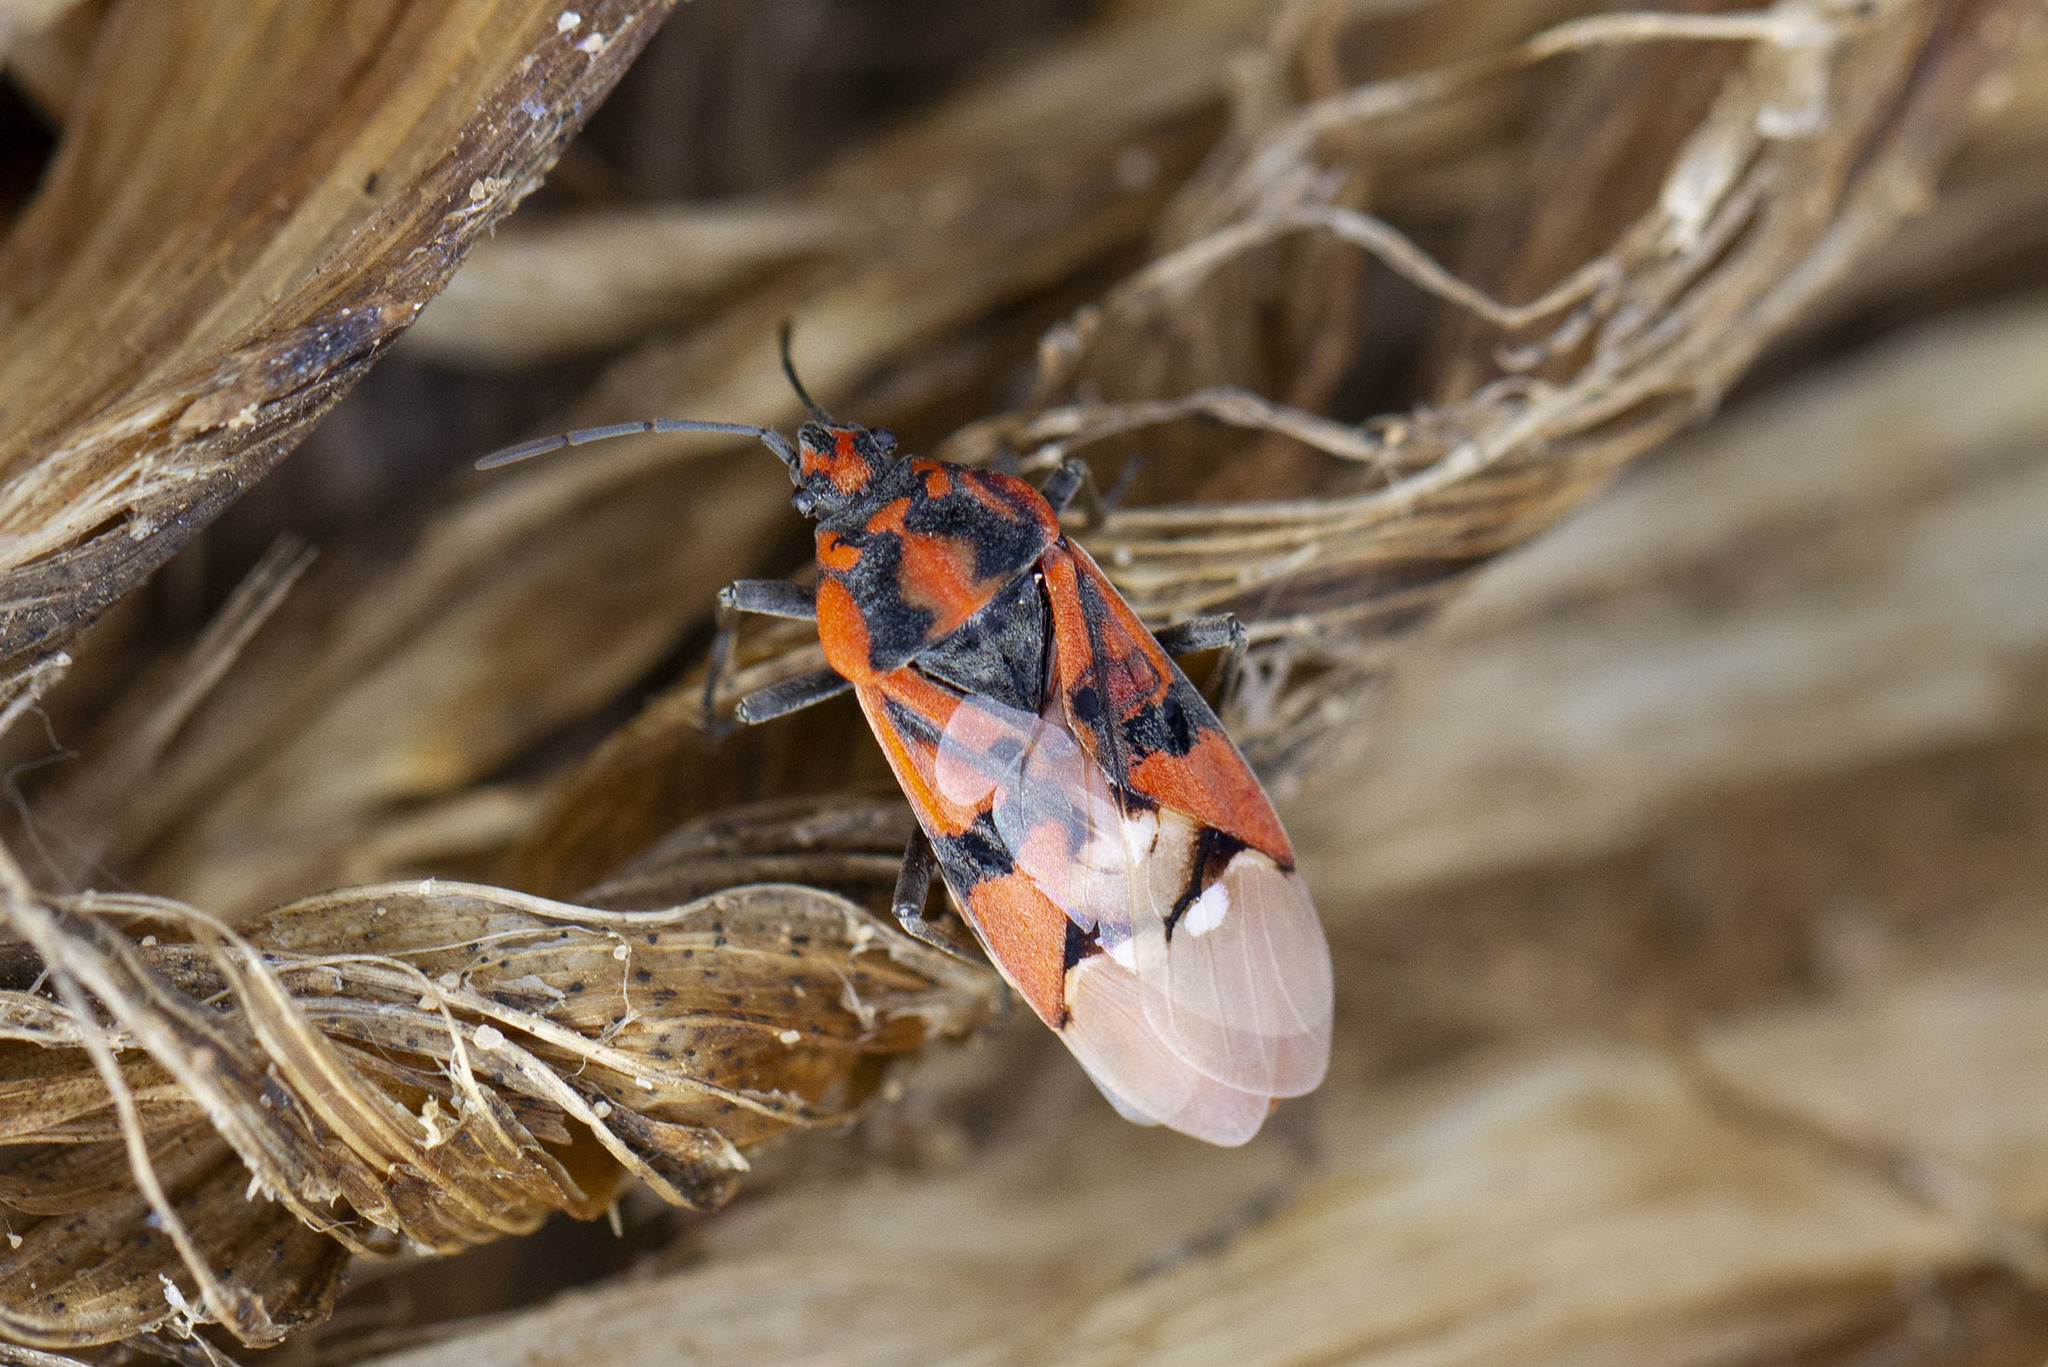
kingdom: Animalia
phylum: Arthropoda
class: Insecta
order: Hemiptera
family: Lygaeidae
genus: Spilostethus
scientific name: Spilostethus pandurus
